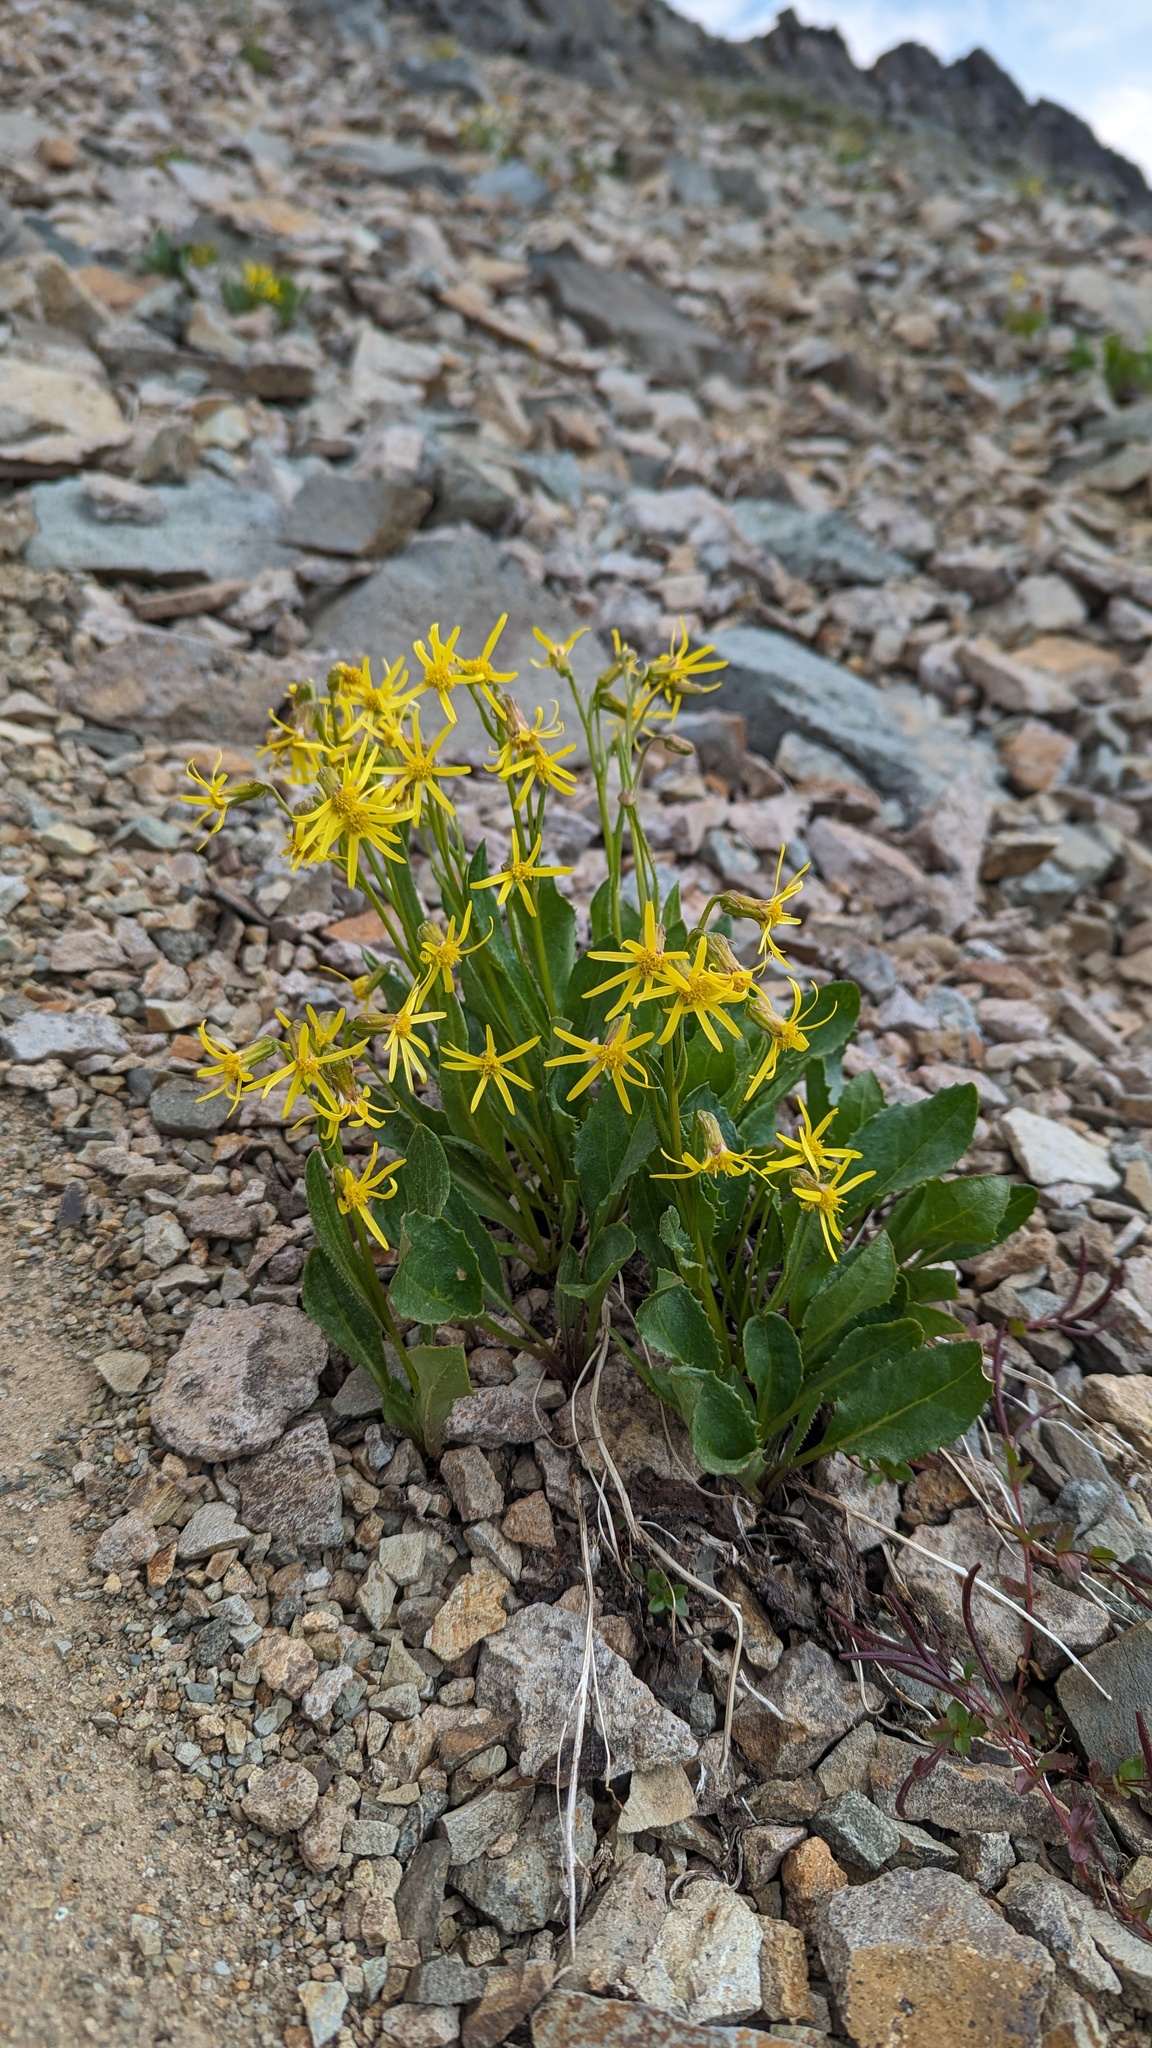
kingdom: Plantae
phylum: Tracheophyta
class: Magnoliopsida
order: Asterales
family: Asteraceae
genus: Senecio
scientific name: Senecio elmeri
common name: Elmer's butterweed
